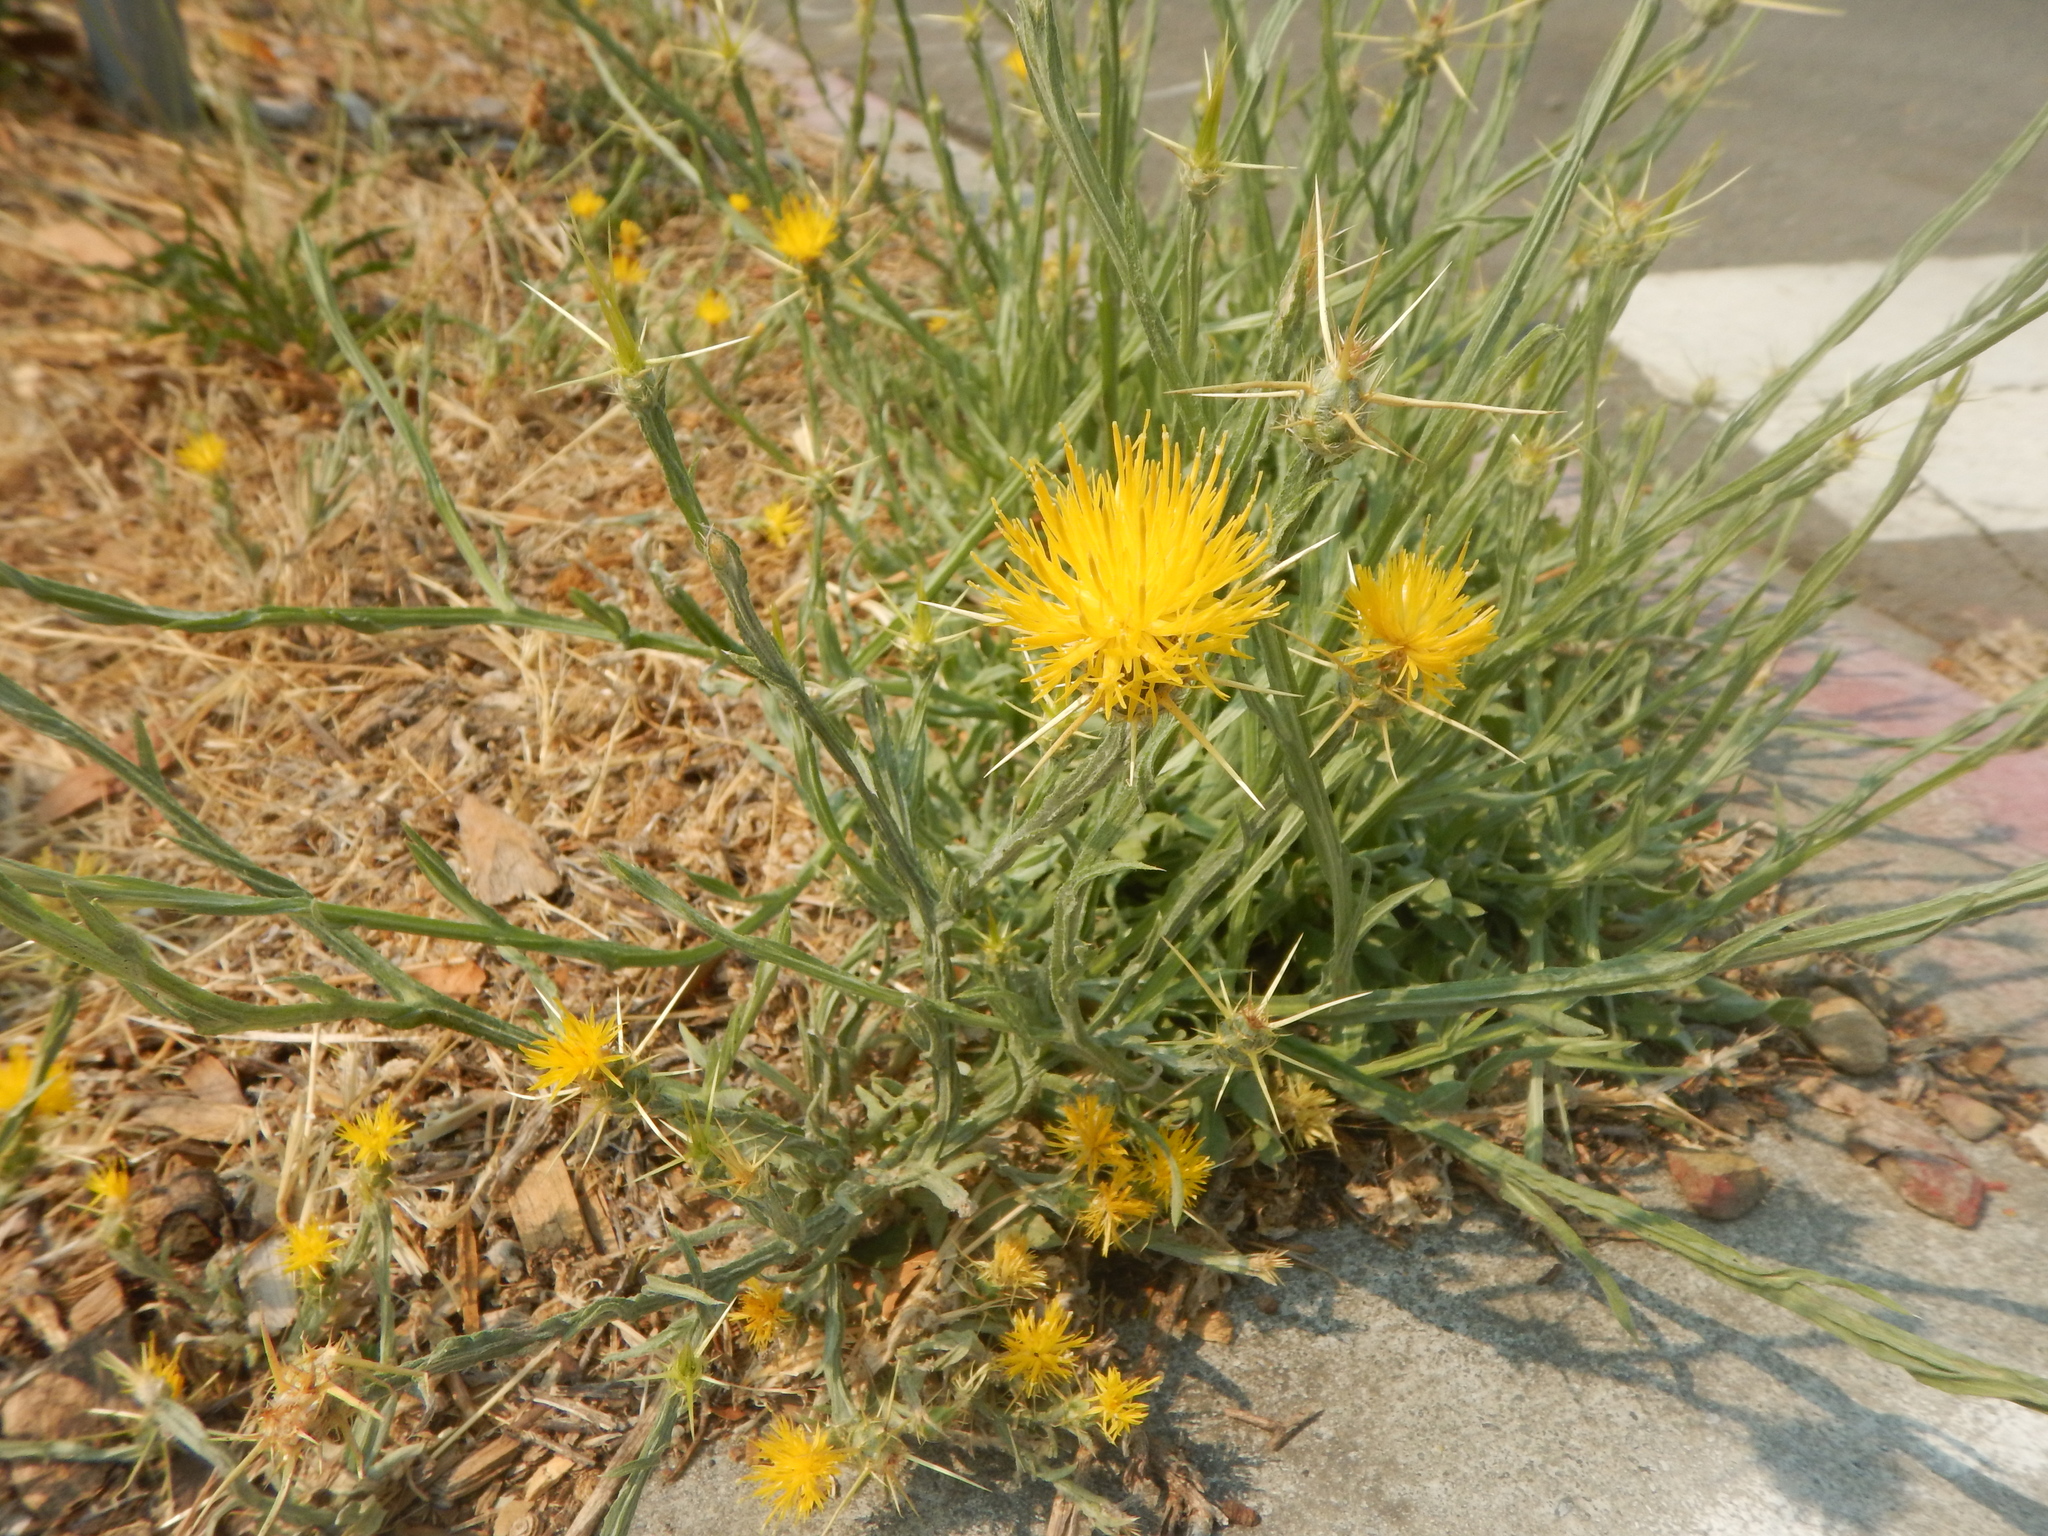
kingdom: Plantae
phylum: Tracheophyta
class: Magnoliopsida
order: Asterales
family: Asteraceae
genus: Centaurea
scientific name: Centaurea solstitialis
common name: Yellow star-thistle
